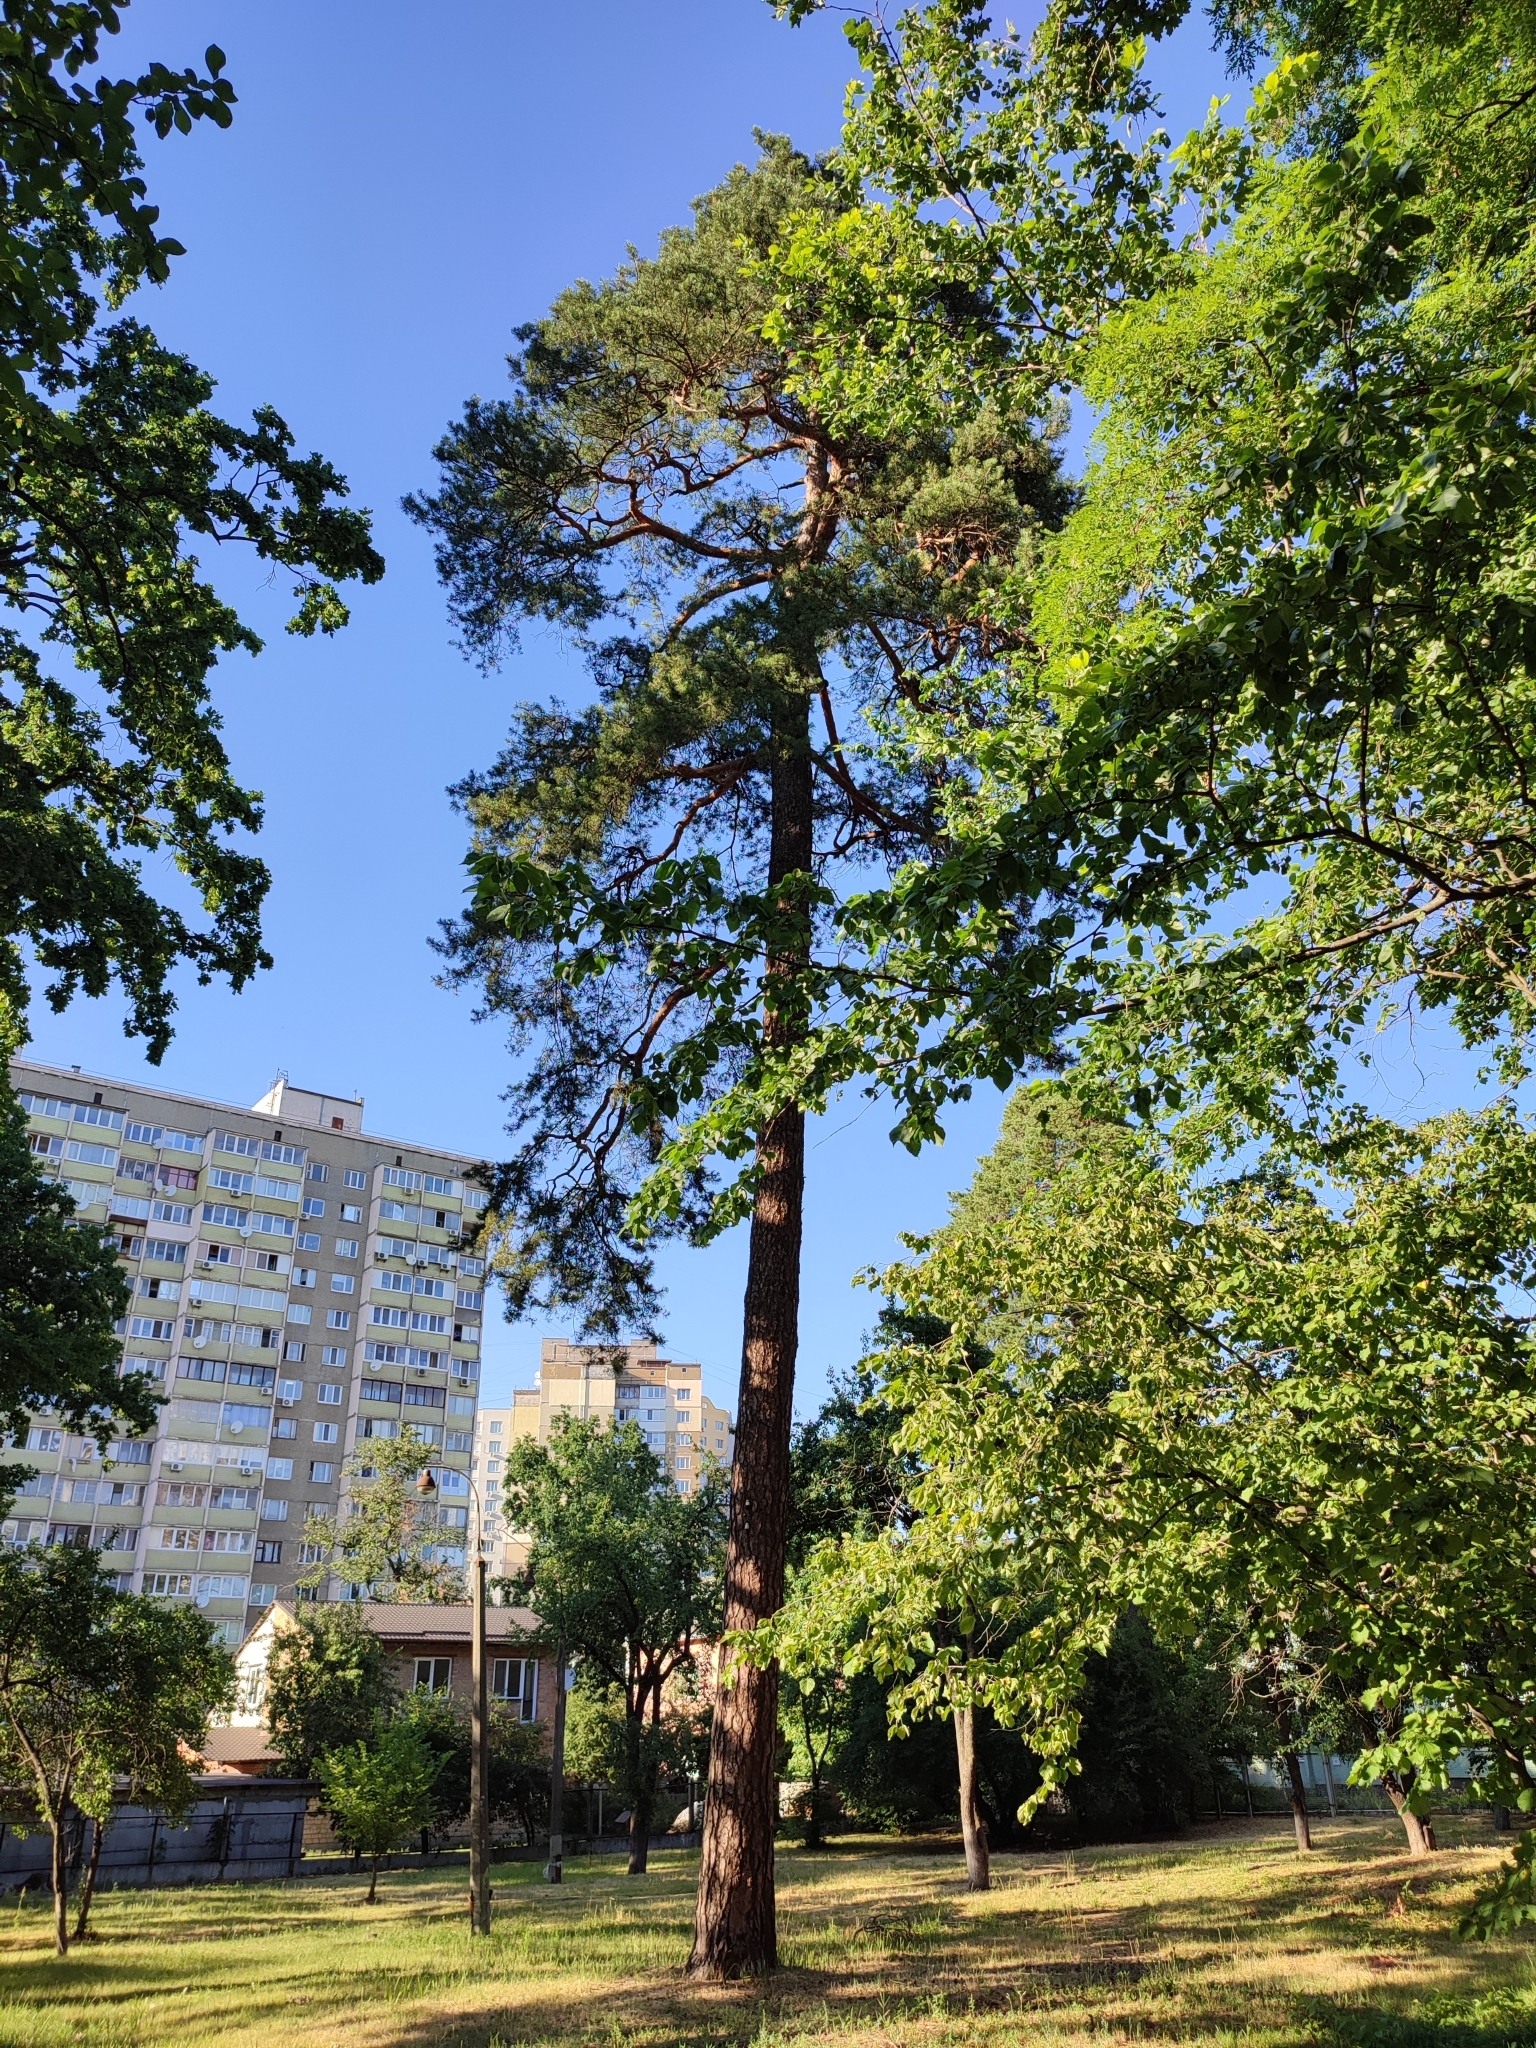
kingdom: Plantae
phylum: Tracheophyta
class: Pinopsida
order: Pinales
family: Pinaceae
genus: Pinus
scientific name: Pinus sylvestris
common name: Scots pine
